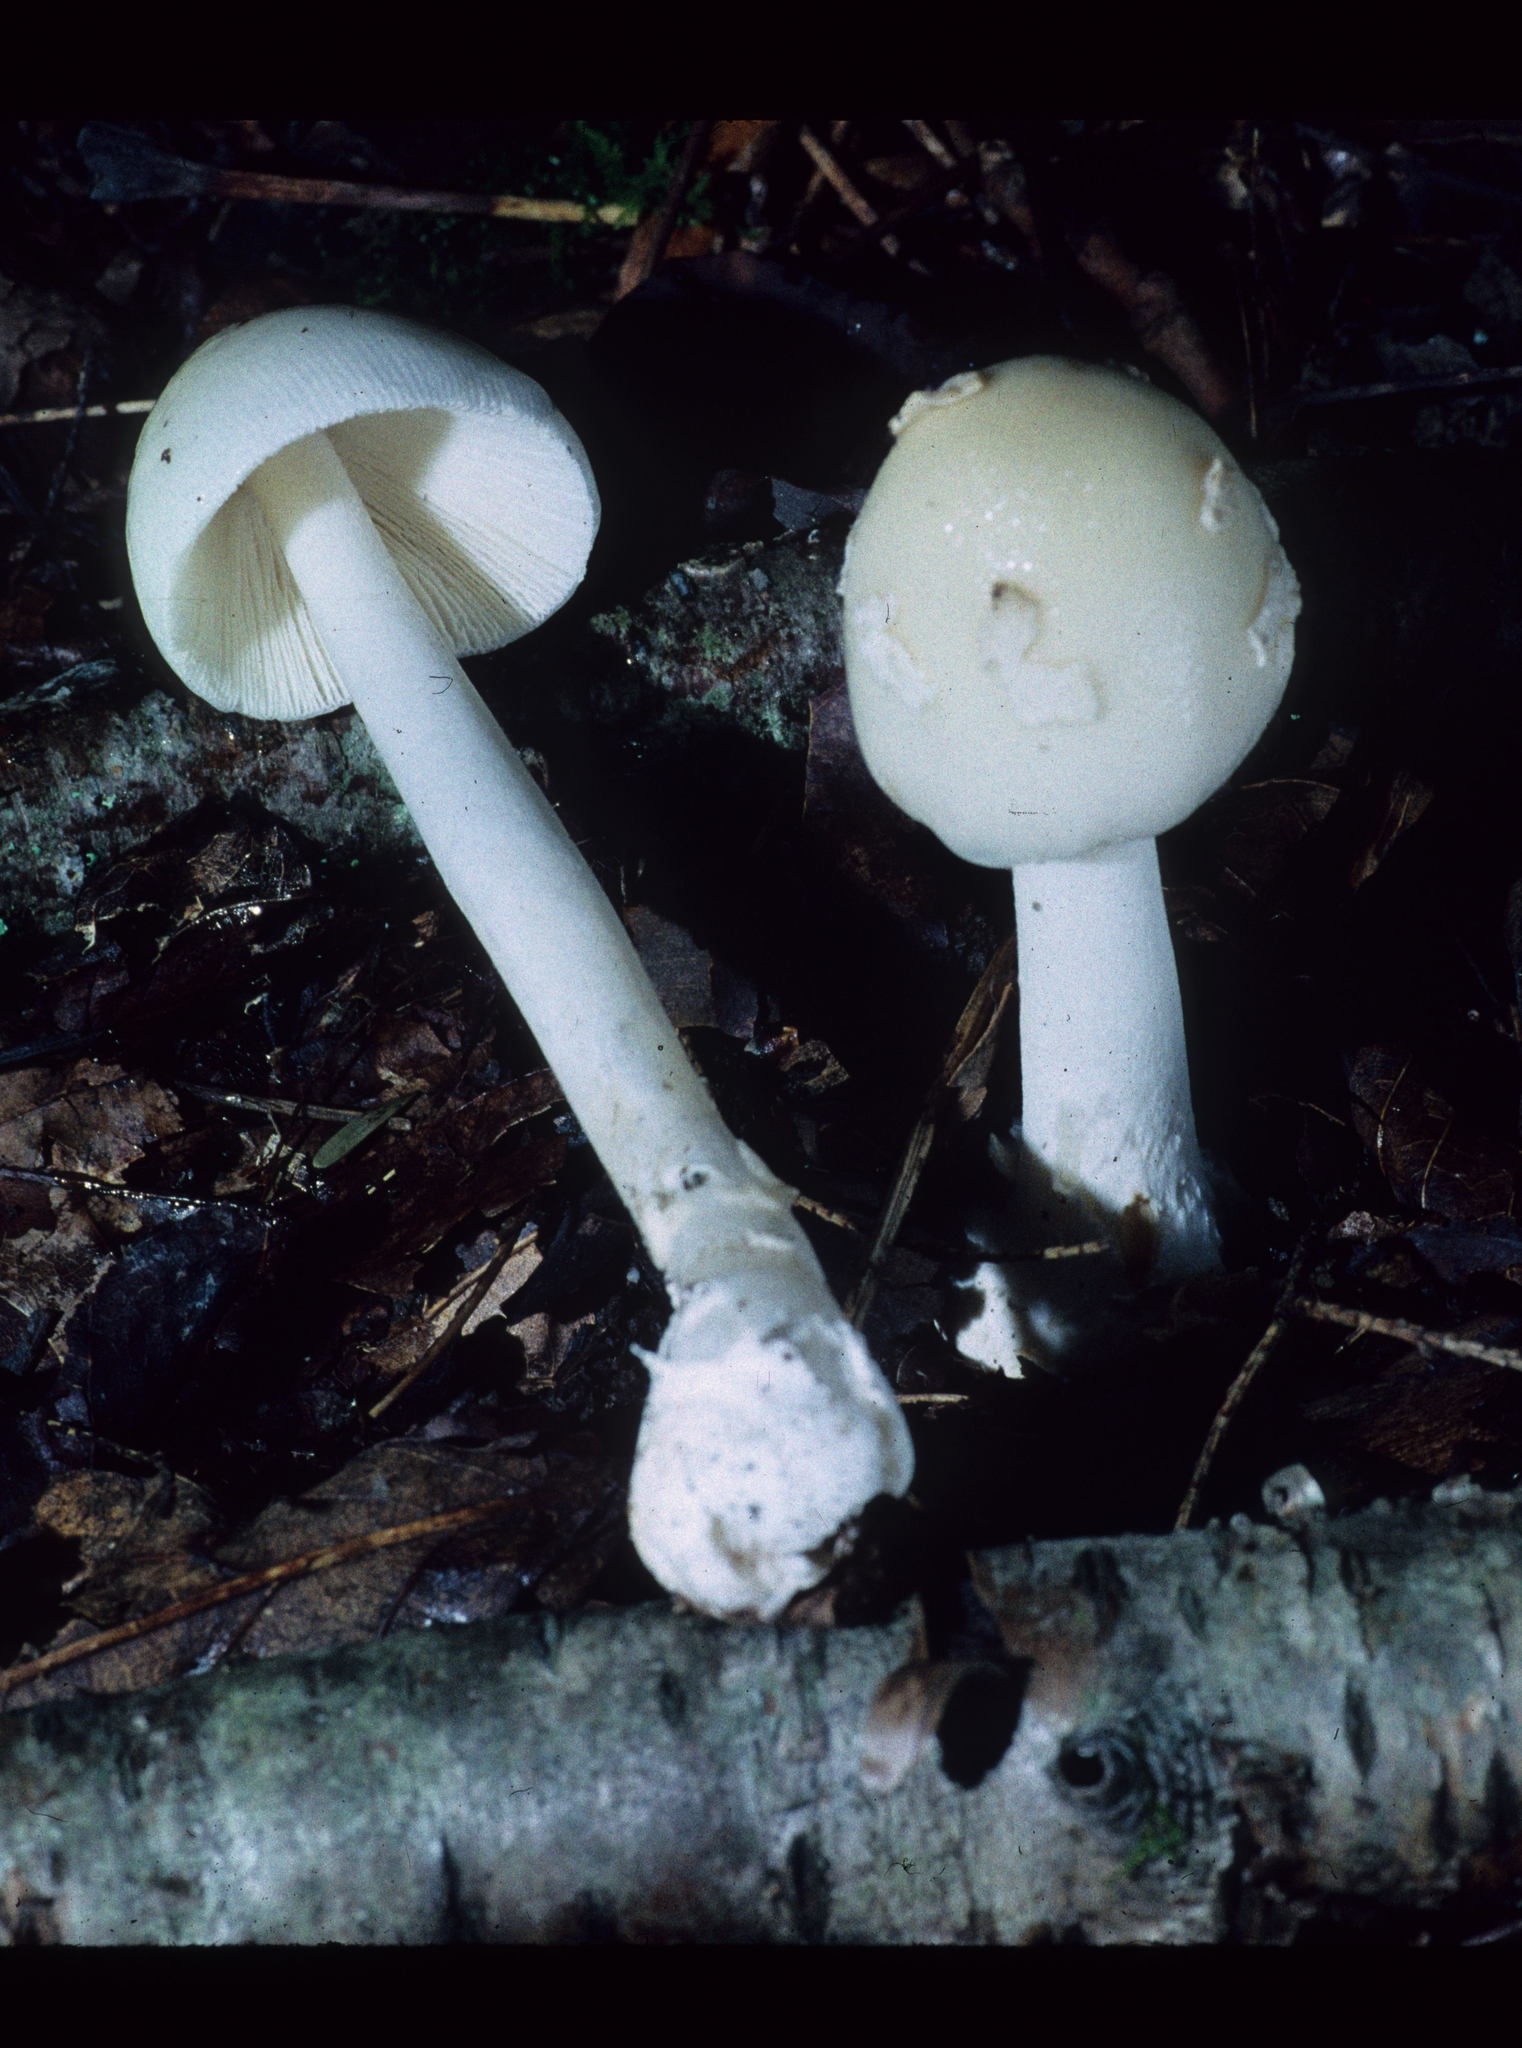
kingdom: Fungi
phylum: Basidiomycota
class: Agaricomycetes
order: Agaricales
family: Amanitaceae
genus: Amanita
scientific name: Amanita albocreata
